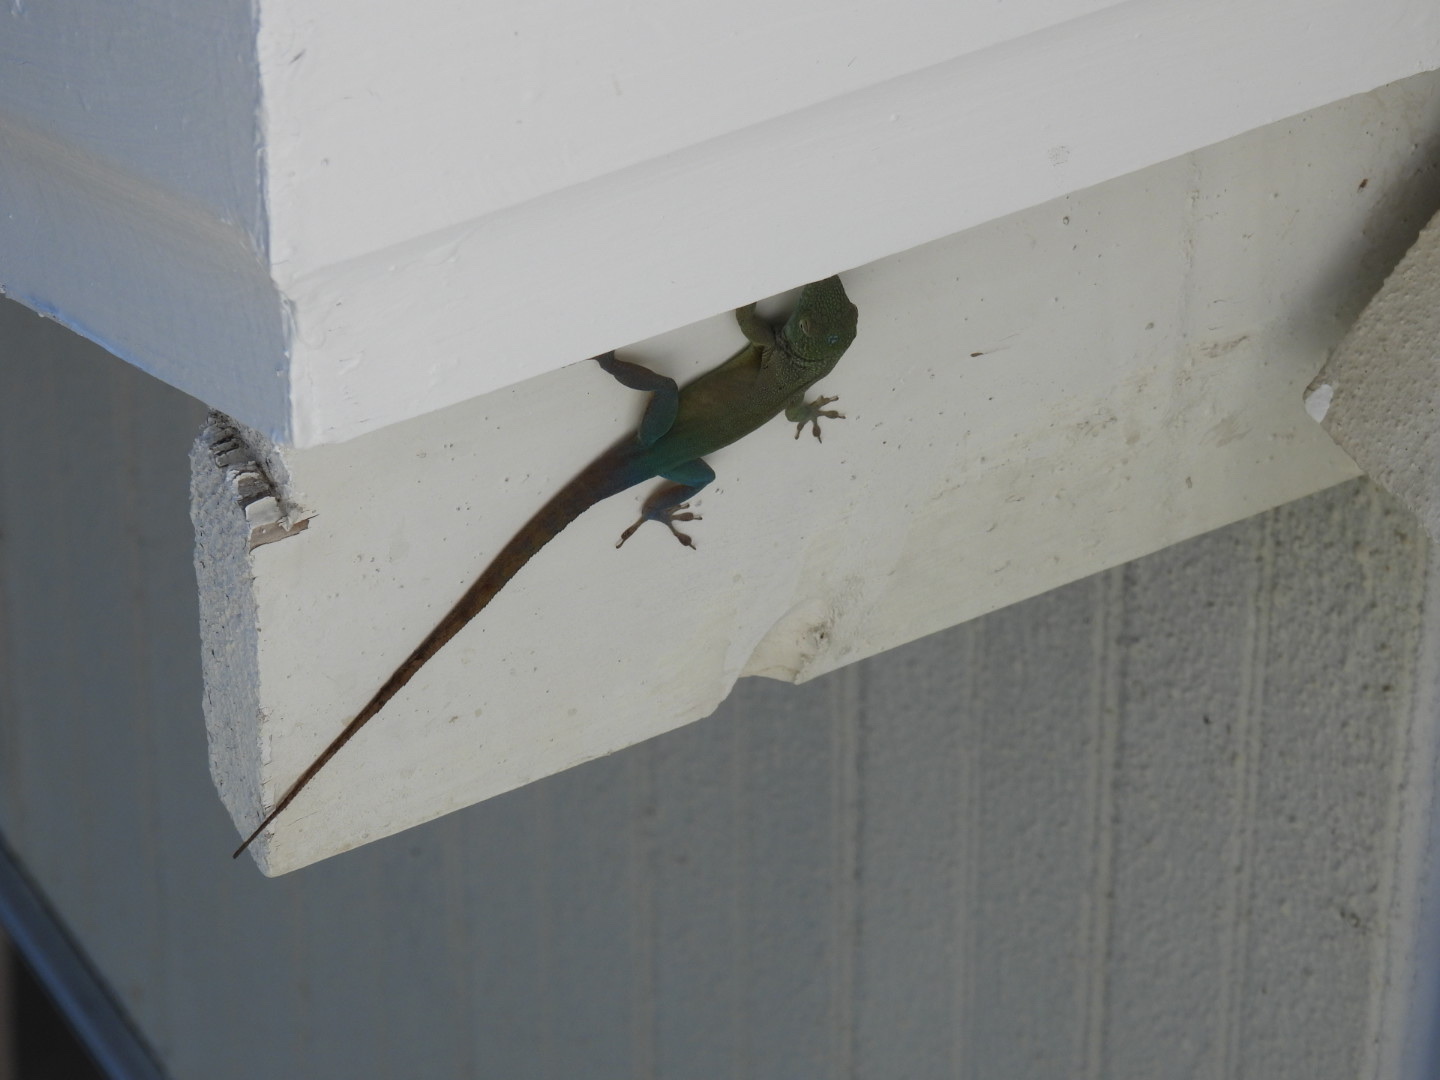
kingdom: Animalia
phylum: Chordata
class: Squamata
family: Dactyloidae
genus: Anolis
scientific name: Anolis grahami
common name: Graham's anole
